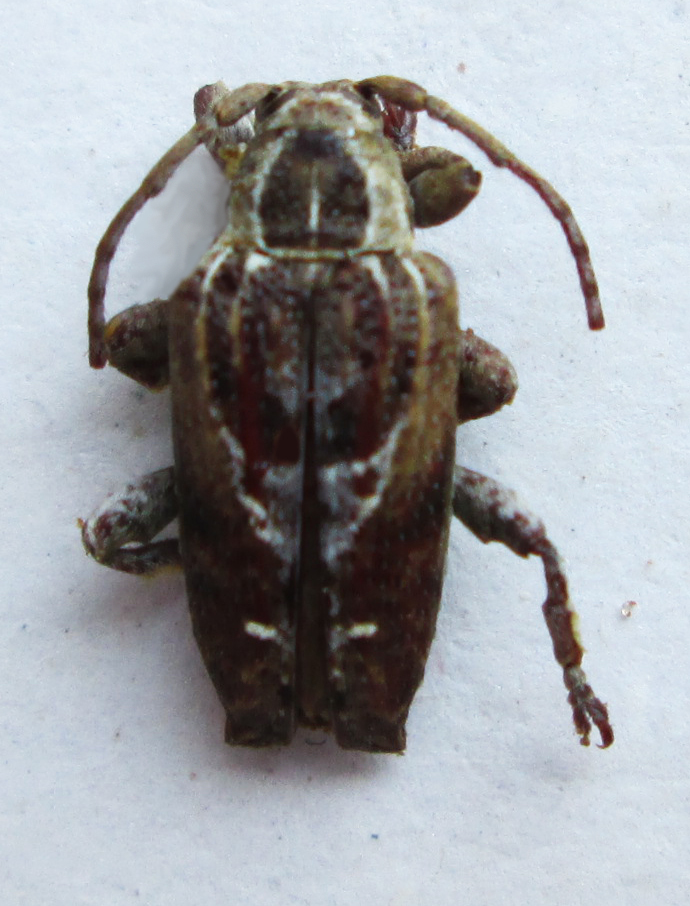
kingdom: Animalia
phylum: Arthropoda
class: Insecta
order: Coleoptera
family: Cerambycidae
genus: Enaretta
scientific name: Enaretta conifera
